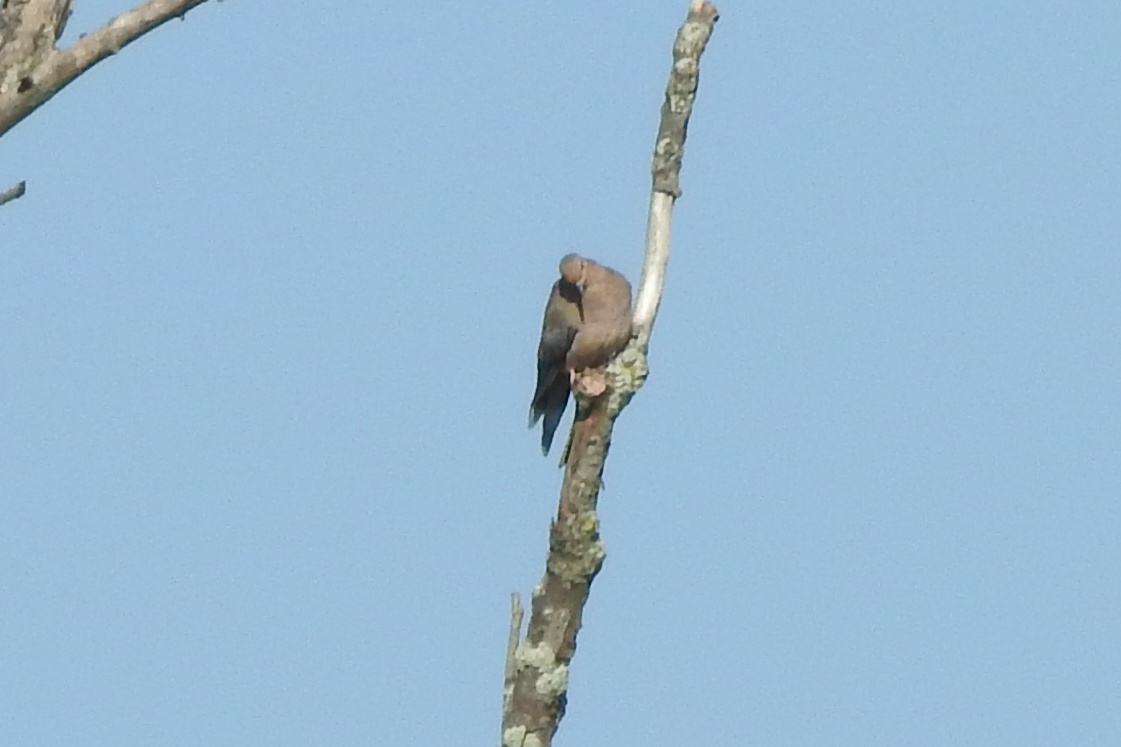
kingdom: Animalia
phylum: Chordata
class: Aves
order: Columbiformes
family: Columbidae
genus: Zenaida
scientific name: Zenaida macroura
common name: Mourning dove
